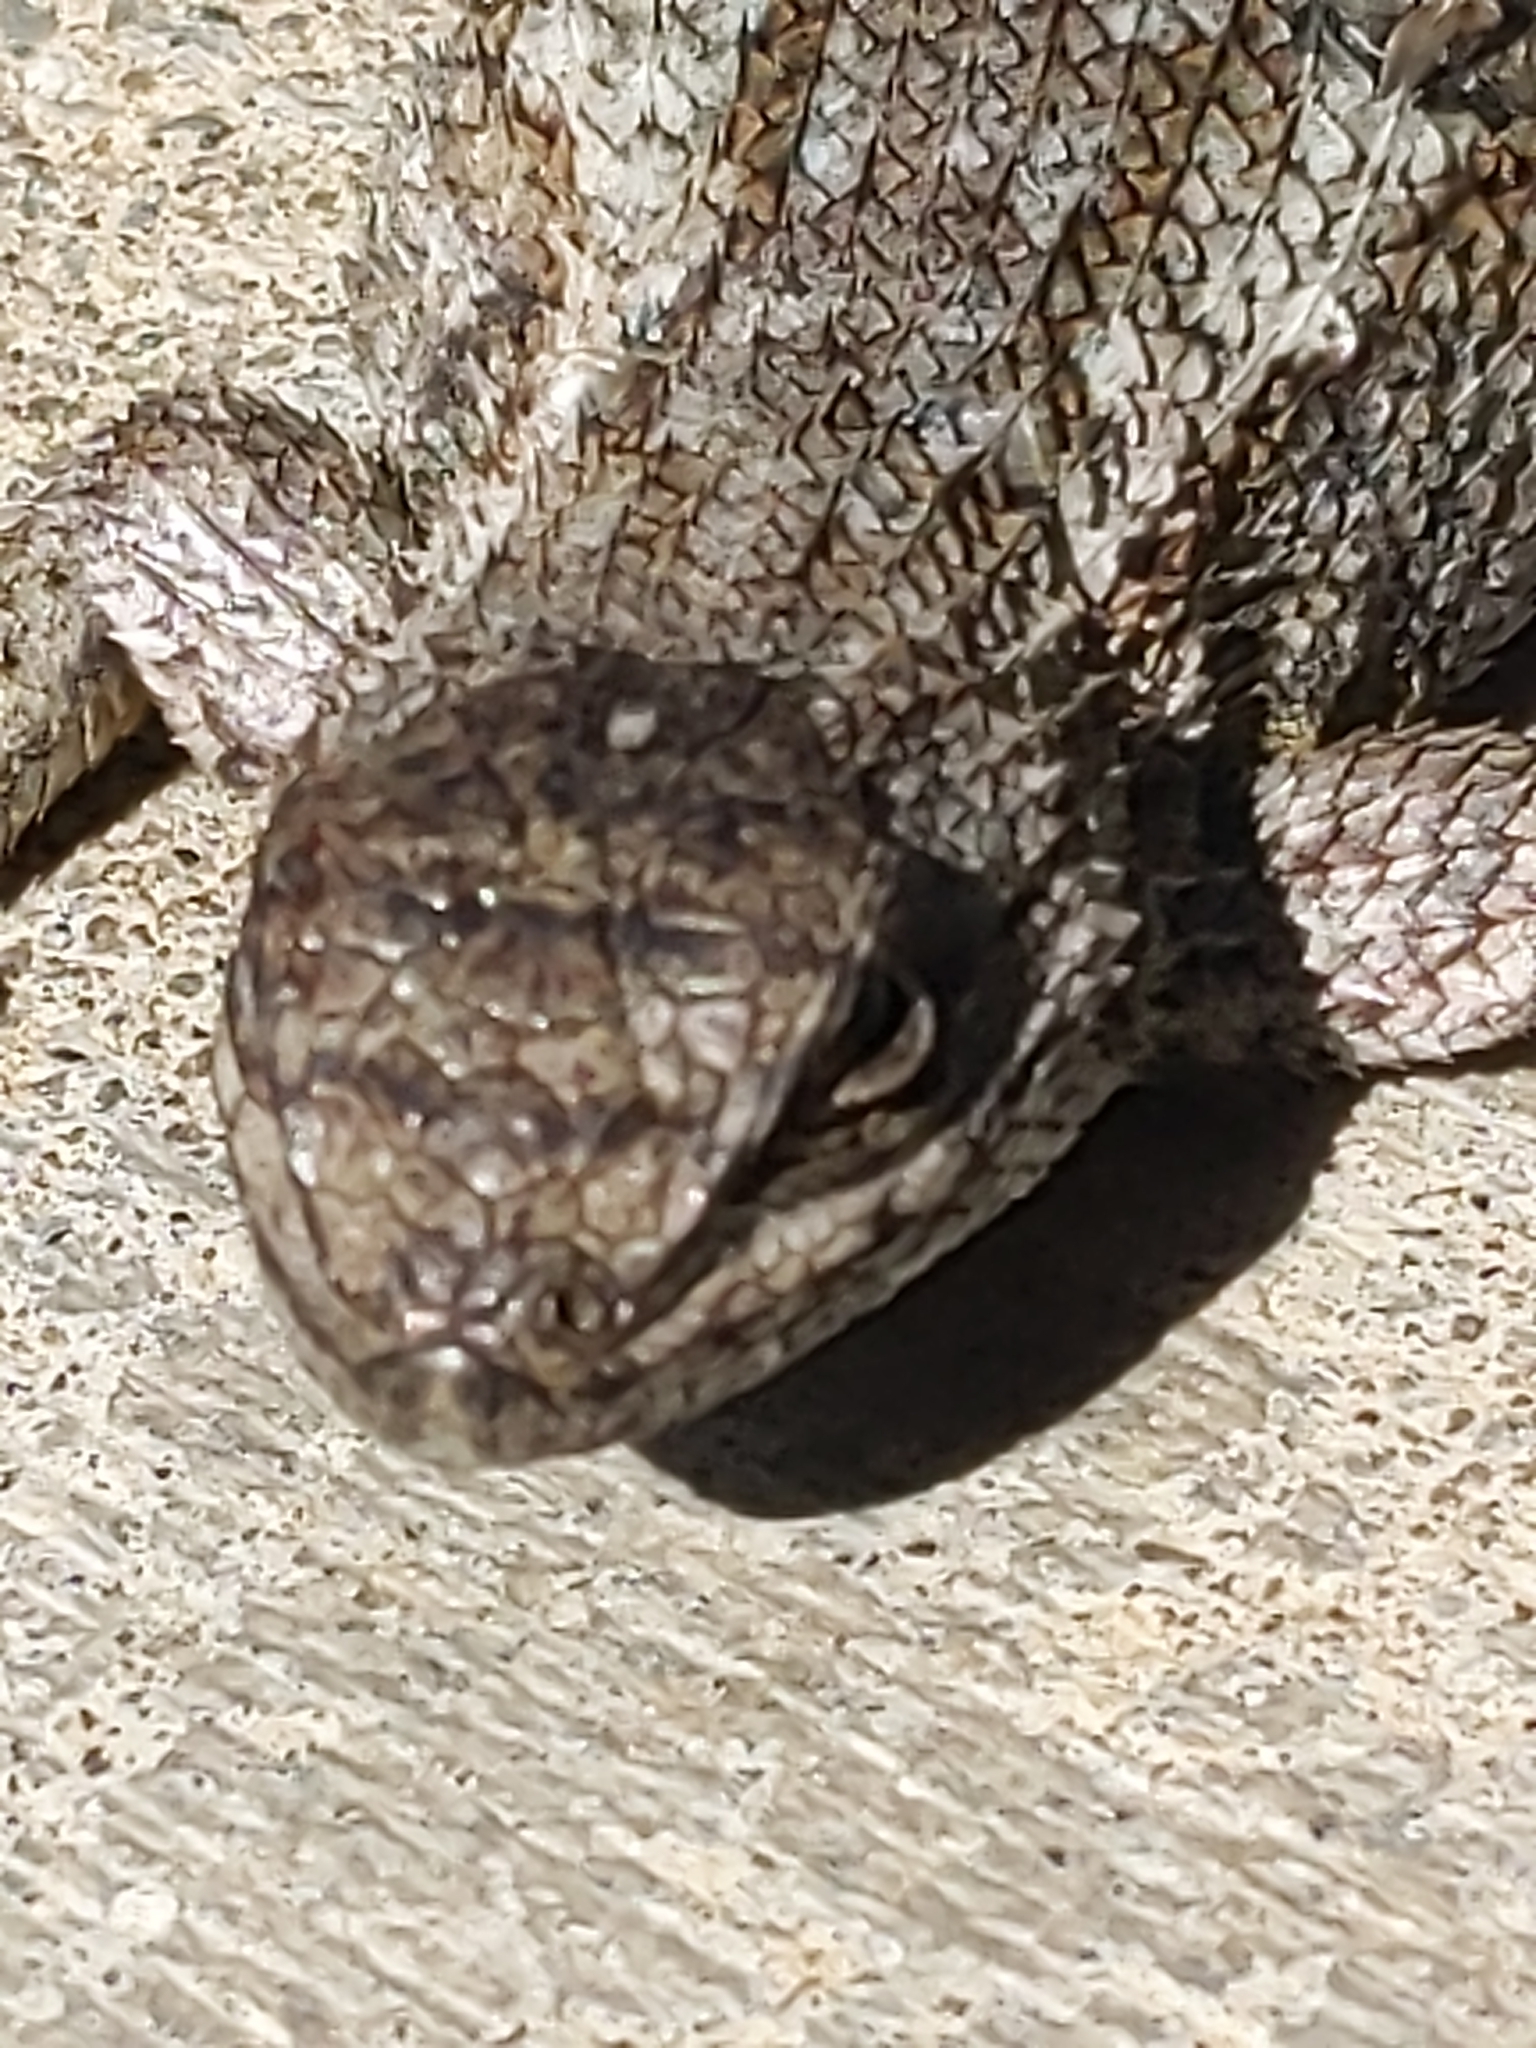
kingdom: Animalia
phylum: Chordata
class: Squamata
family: Phrynosomatidae
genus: Sceloporus
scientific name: Sceloporus occidentalis
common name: Western fence lizard
